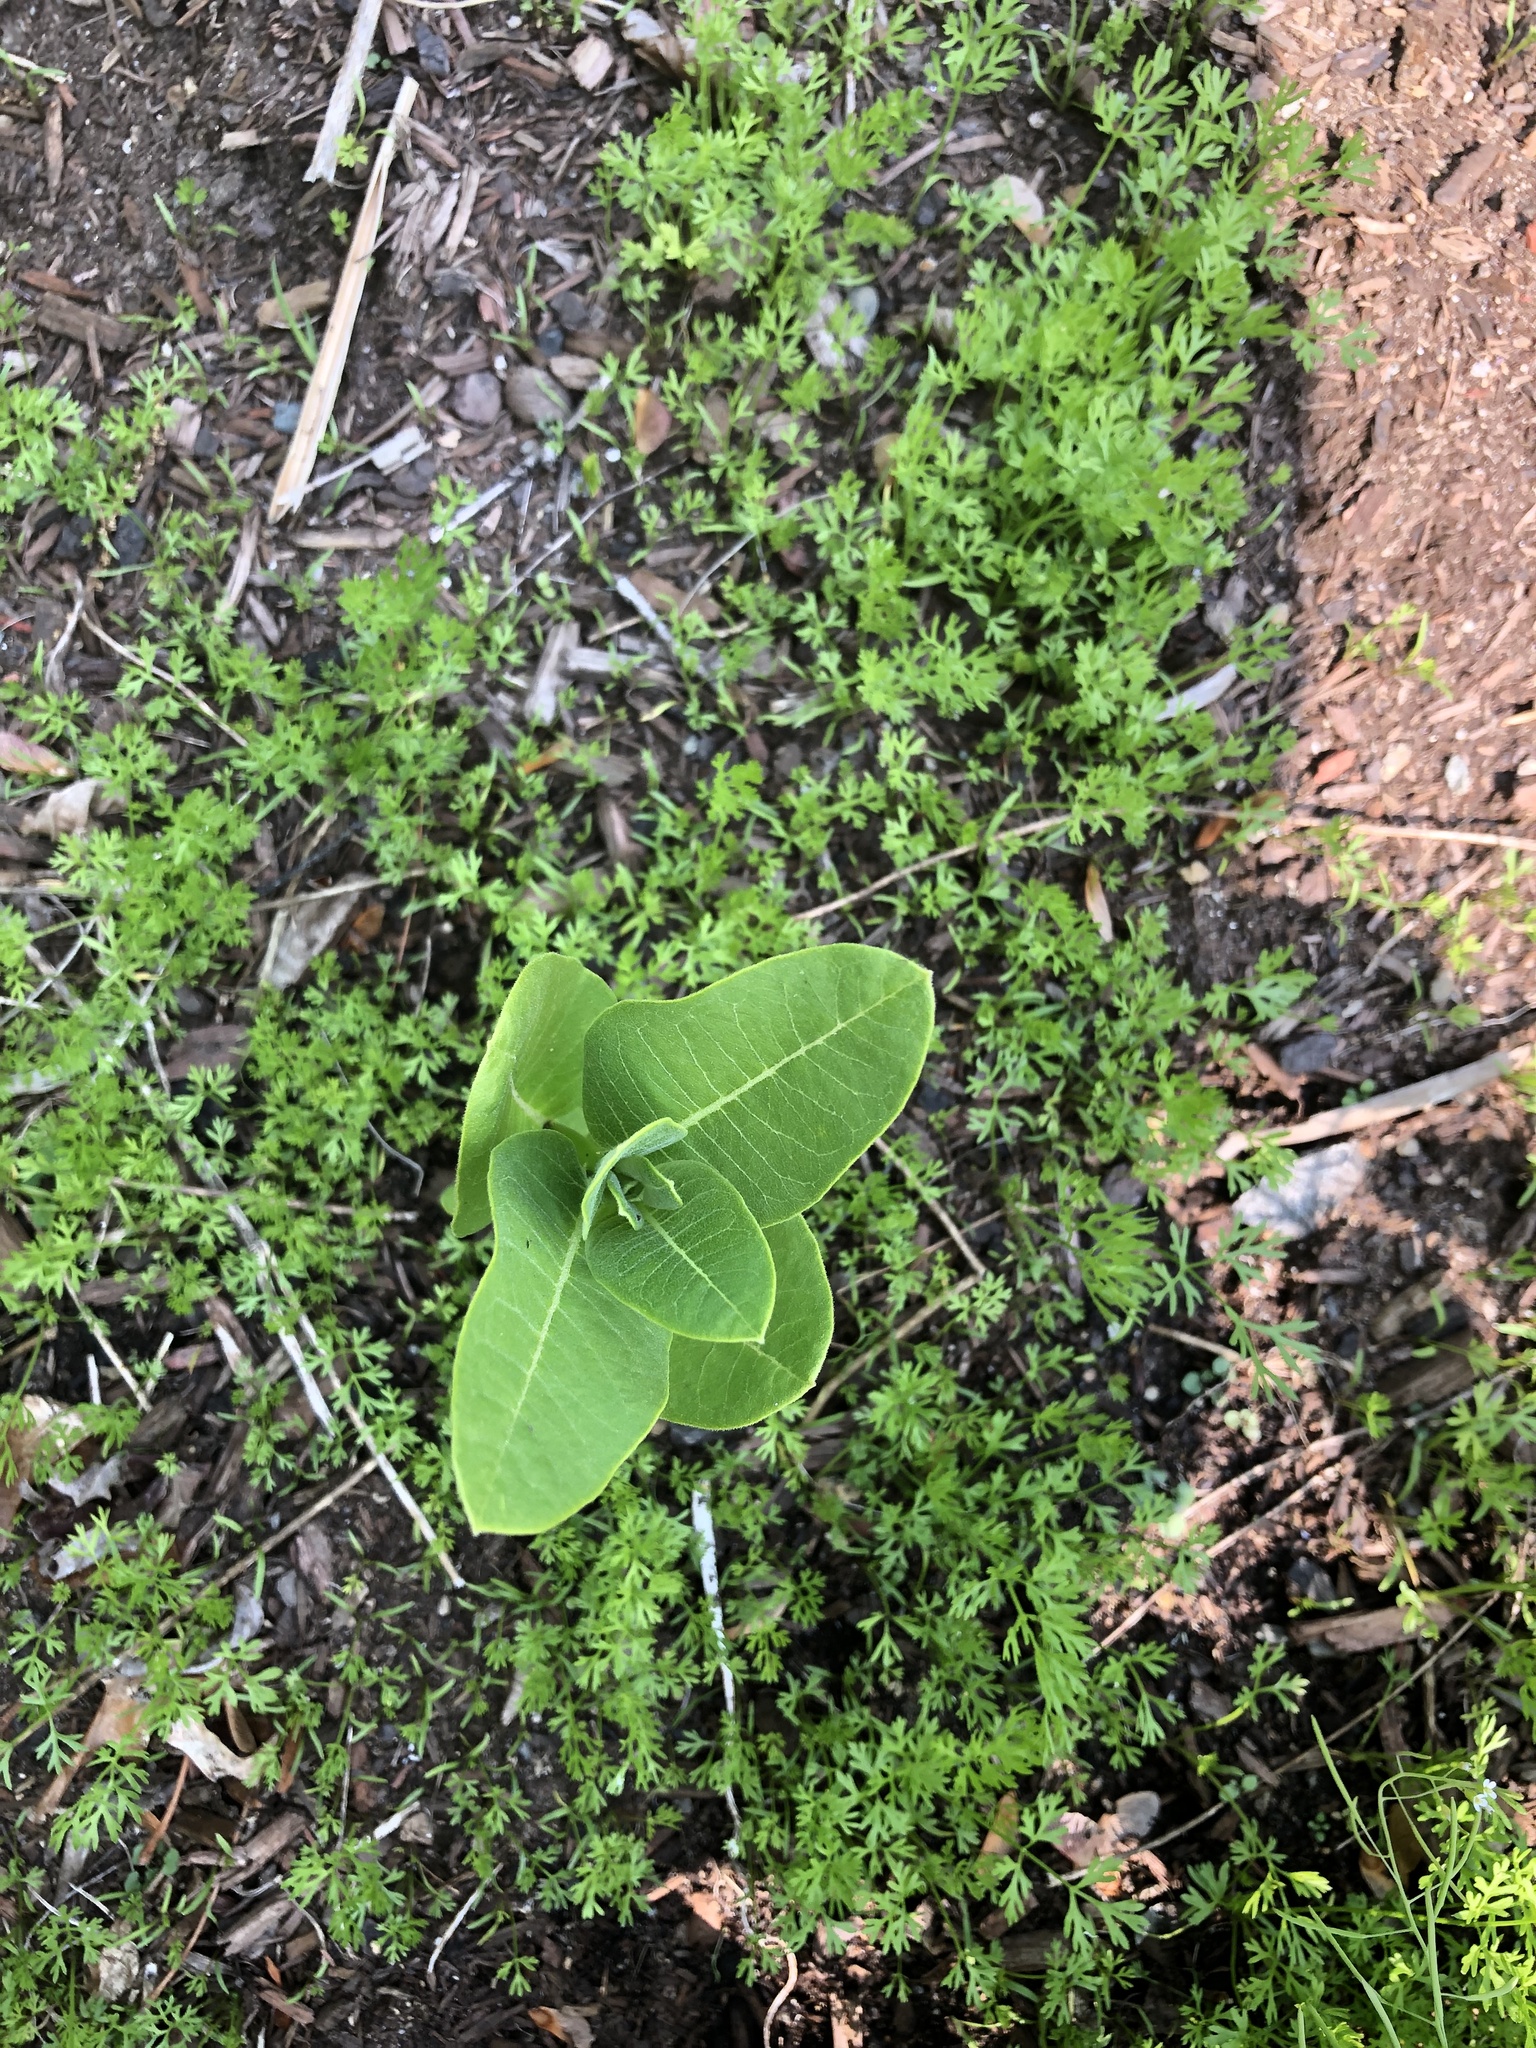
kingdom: Plantae
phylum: Tracheophyta
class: Magnoliopsida
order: Gentianales
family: Apocynaceae
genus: Asclepias
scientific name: Asclepias syriaca
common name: Common milkweed
